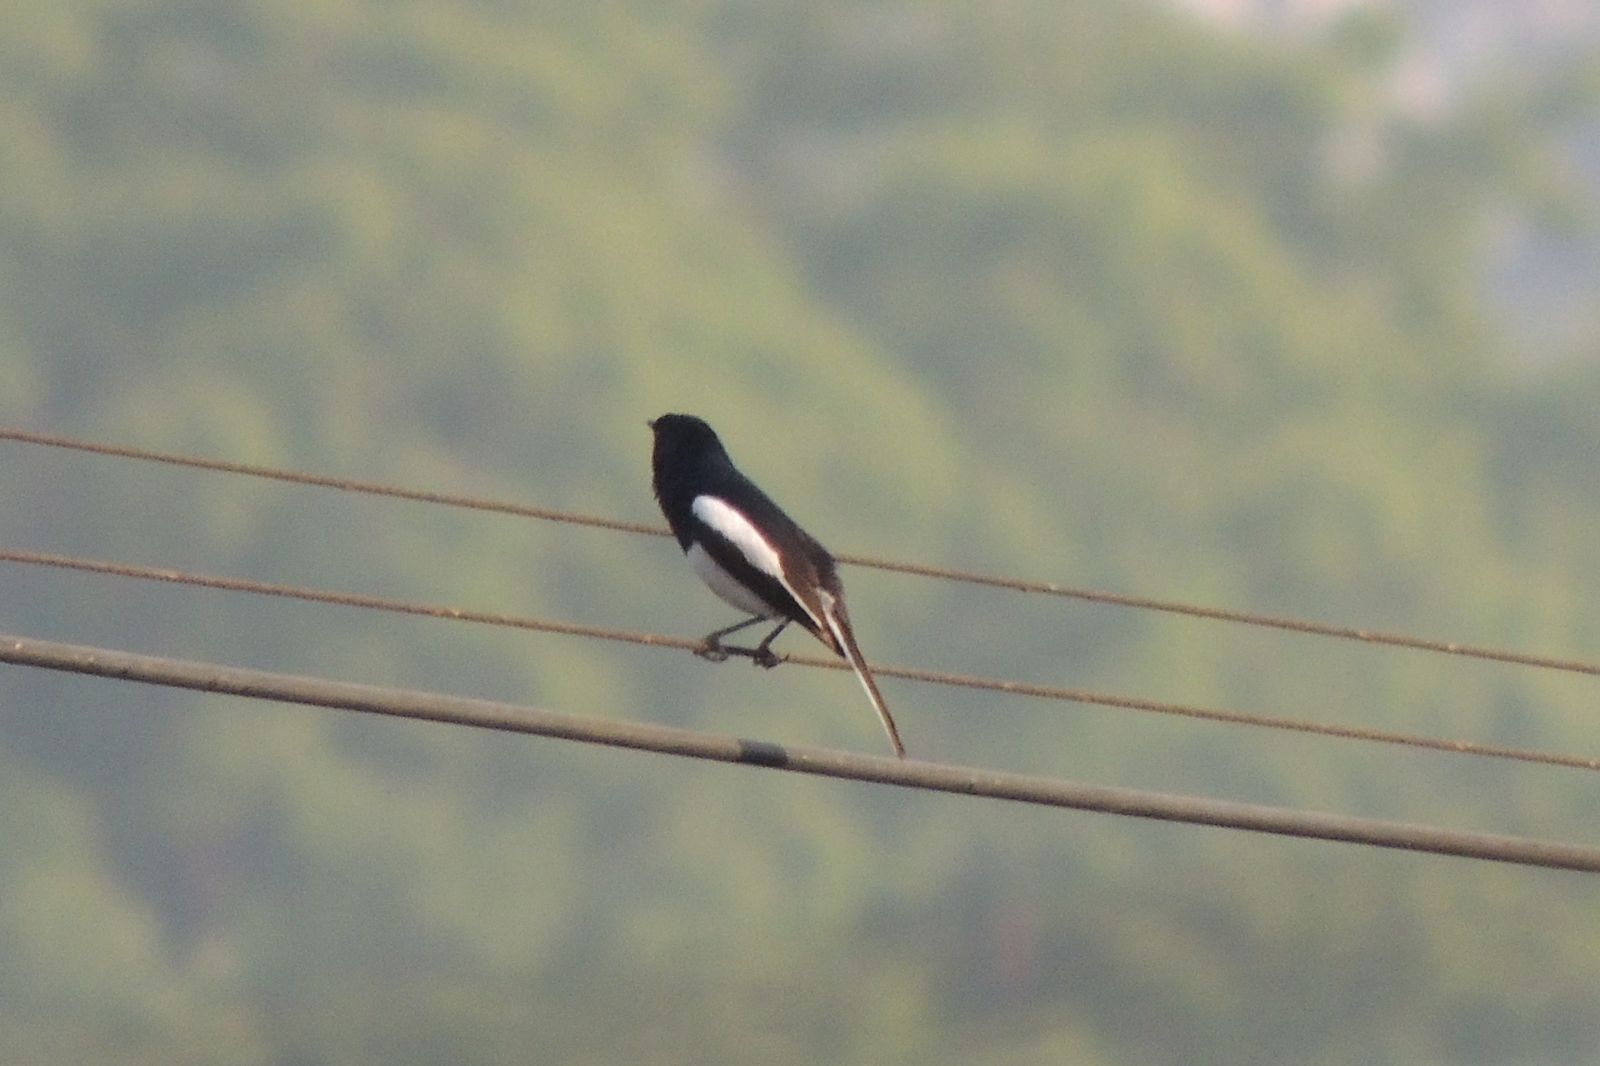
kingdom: Animalia
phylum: Chordata
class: Aves
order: Passeriformes
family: Muscicapidae
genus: Copsychus
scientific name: Copsychus saularis
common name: Oriental magpie-robin
